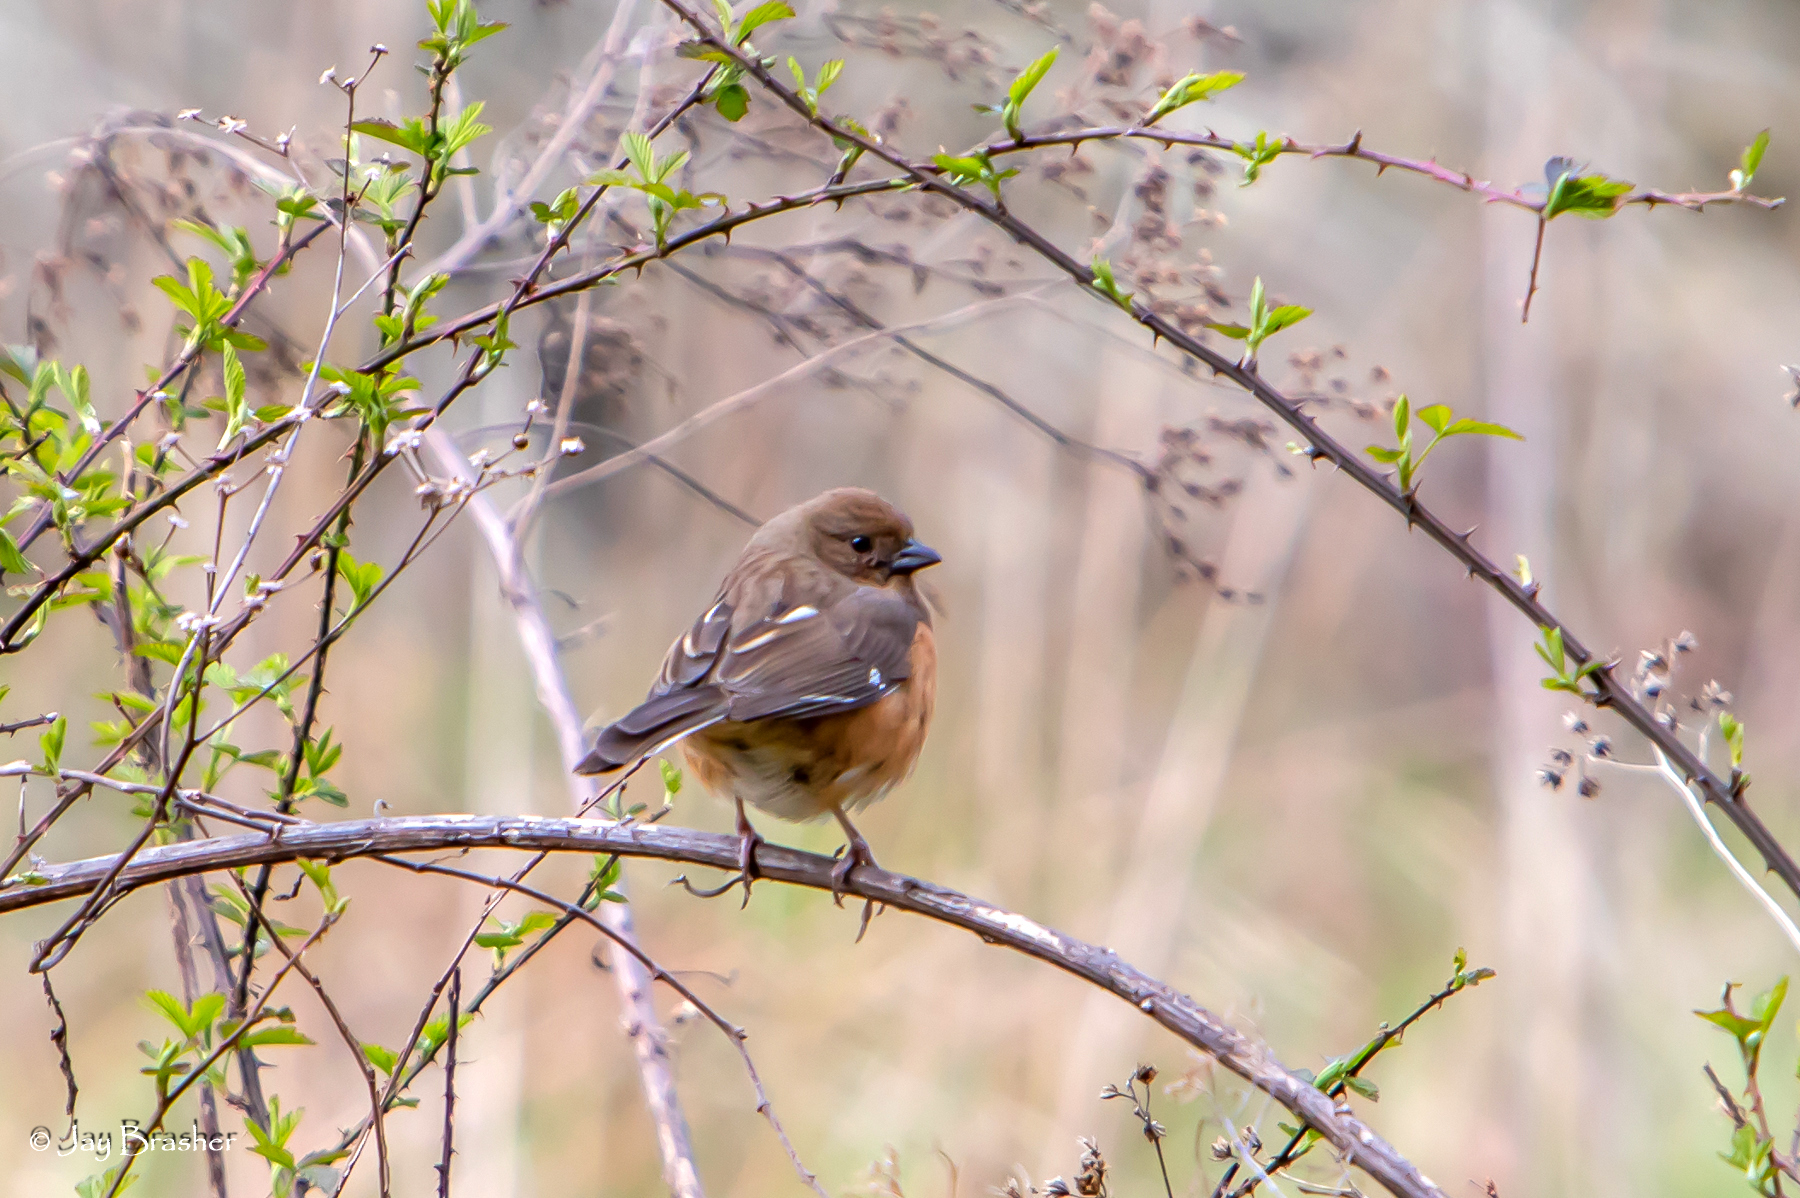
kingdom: Animalia
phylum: Chordata
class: Aves
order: Passeriformes
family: Passerellidae
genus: Pipilo
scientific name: Pipilo erythrophthalmus
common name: Eastern towhee
